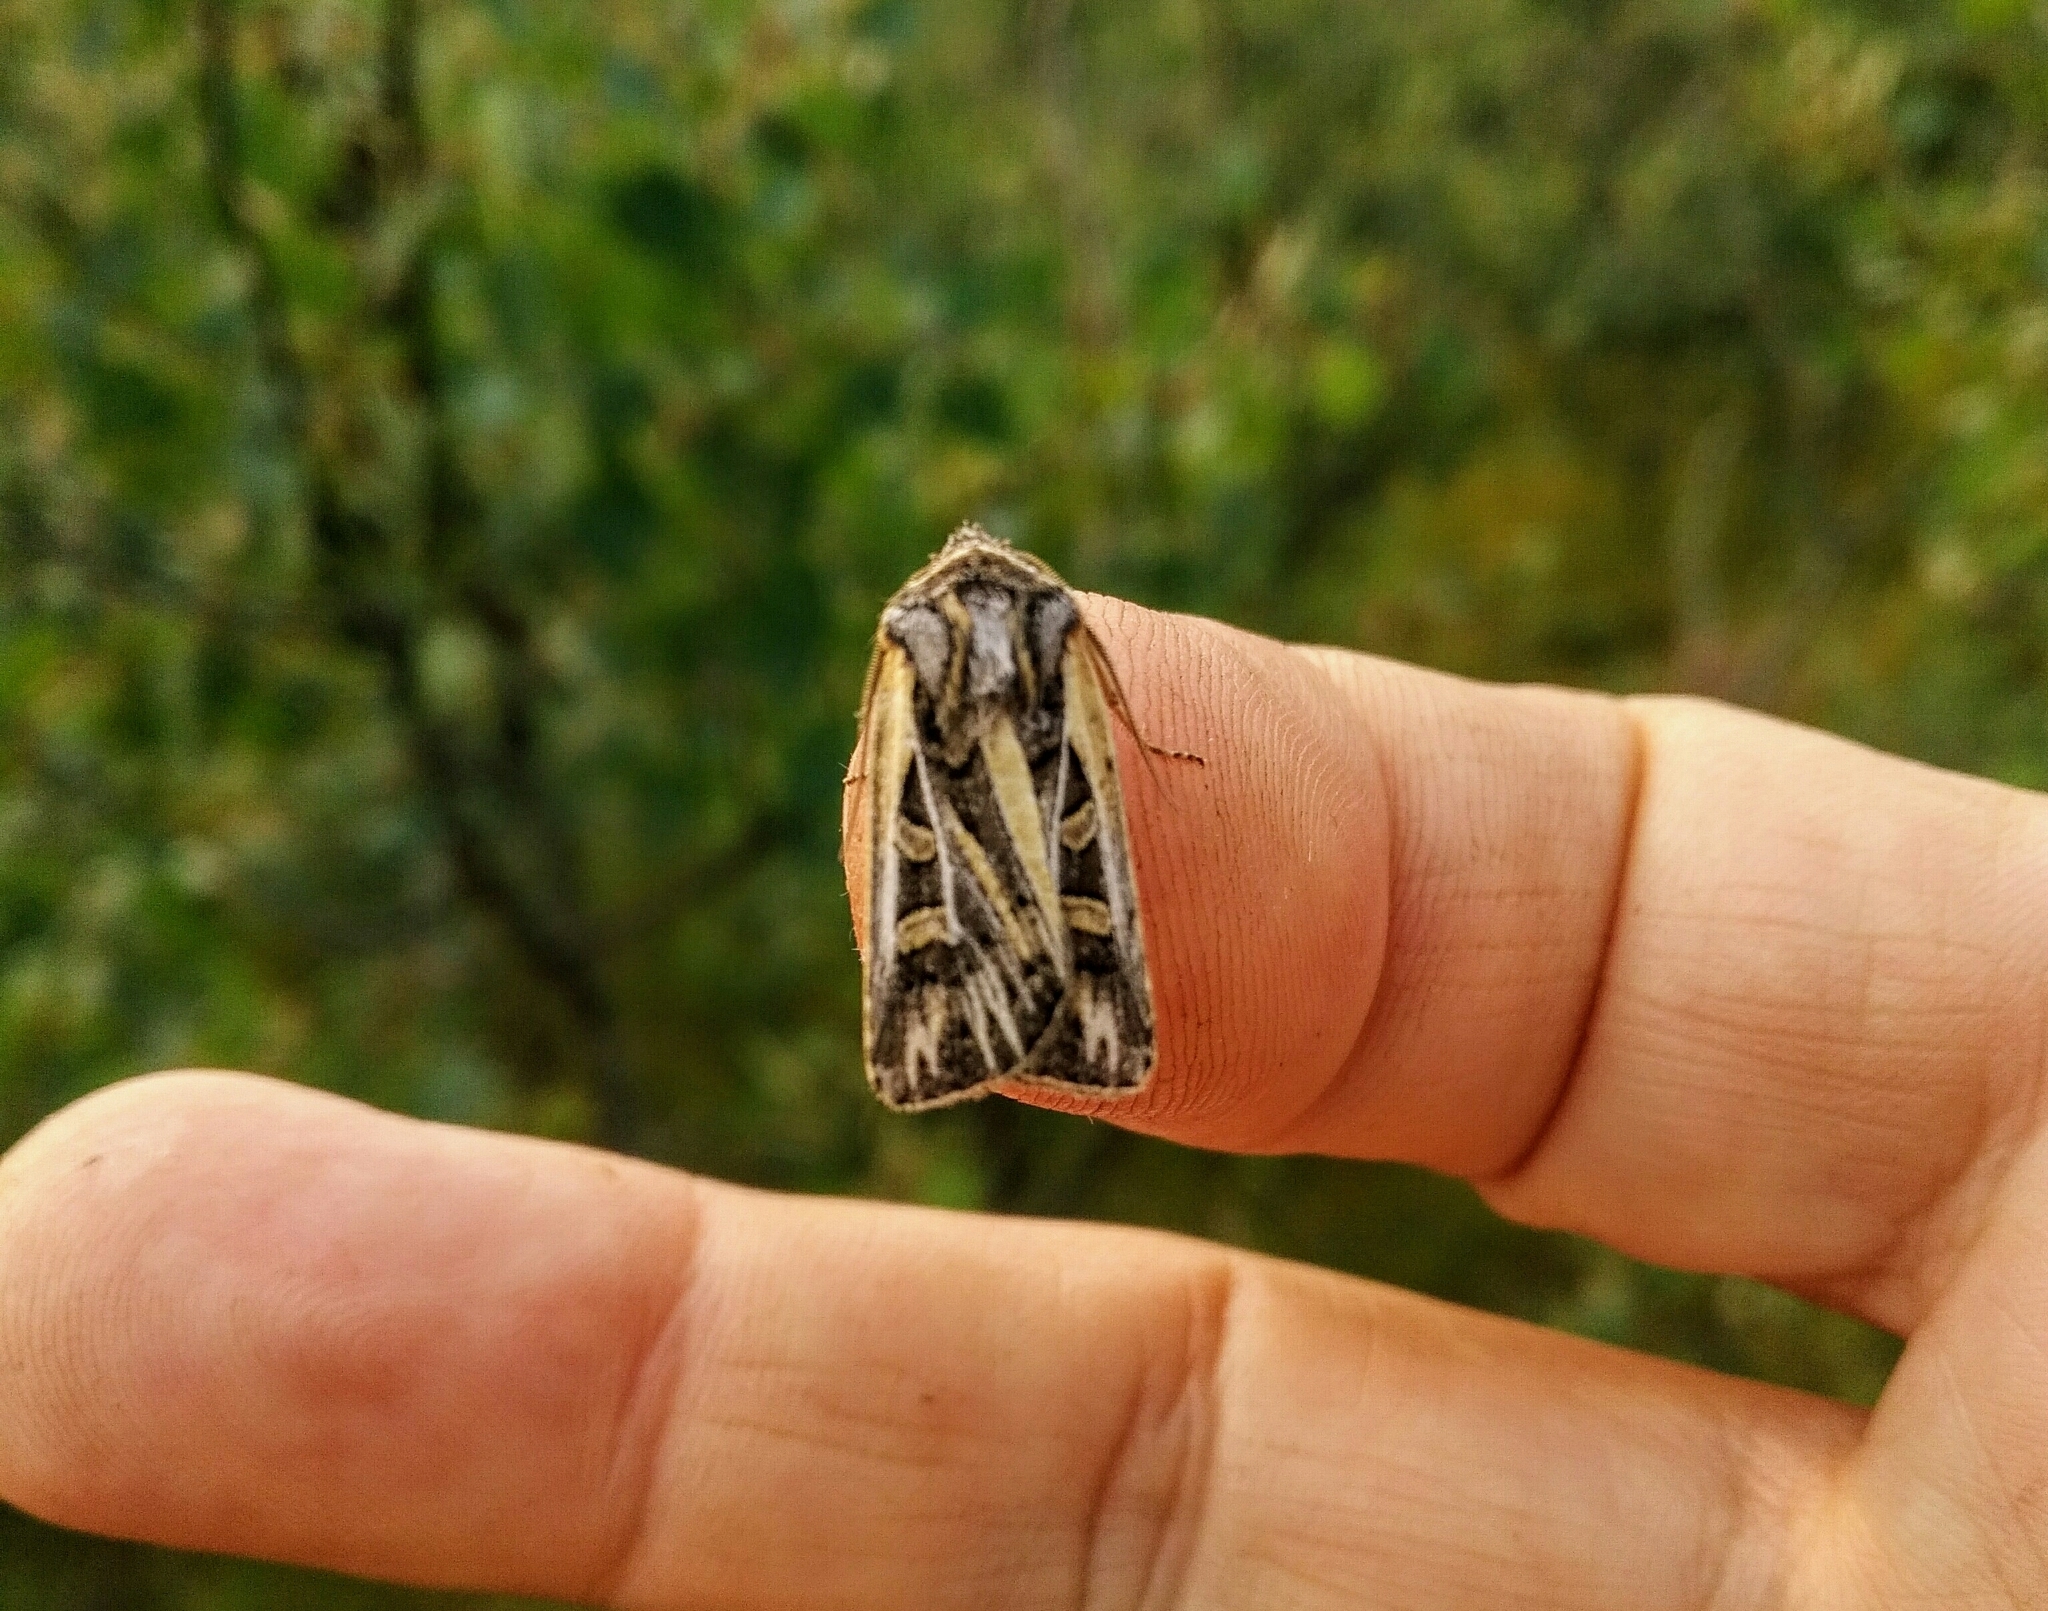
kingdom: Animalia
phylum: Arthropoda
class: Insecta
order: Lepidoptera
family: Noctuidae
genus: Euxoa
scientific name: Euxoa quadridentata
